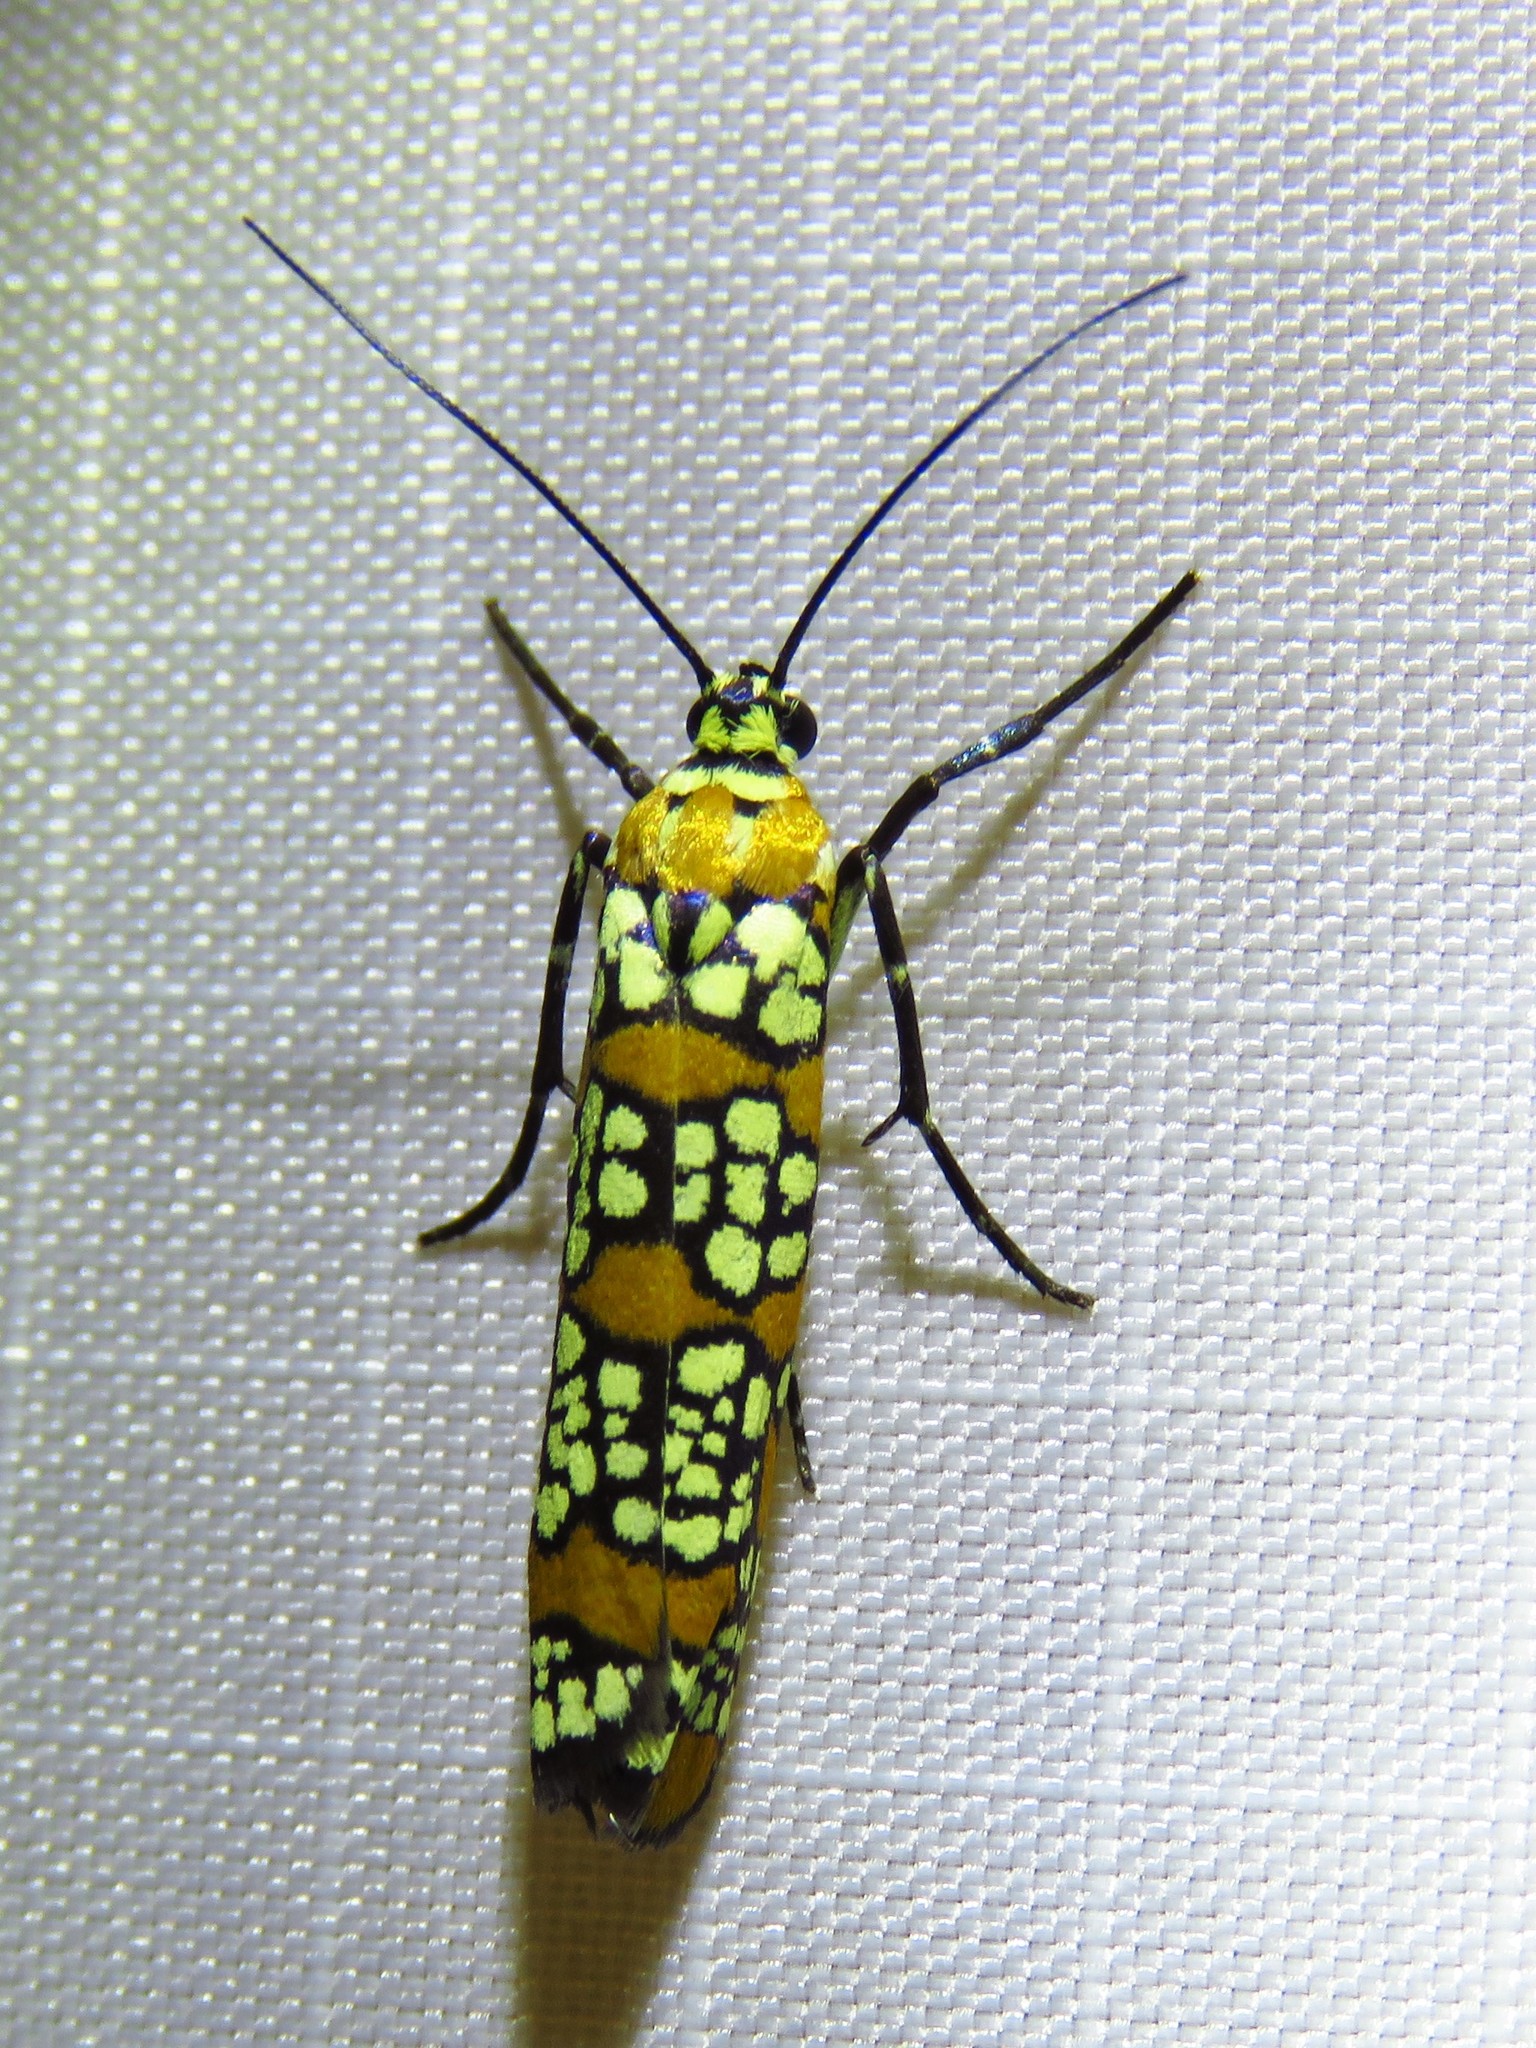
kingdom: Animalia
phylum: Arthropoda
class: Insecta
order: Lepidoptera
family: Attevidae
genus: Atteva
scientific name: Atteva punctella
